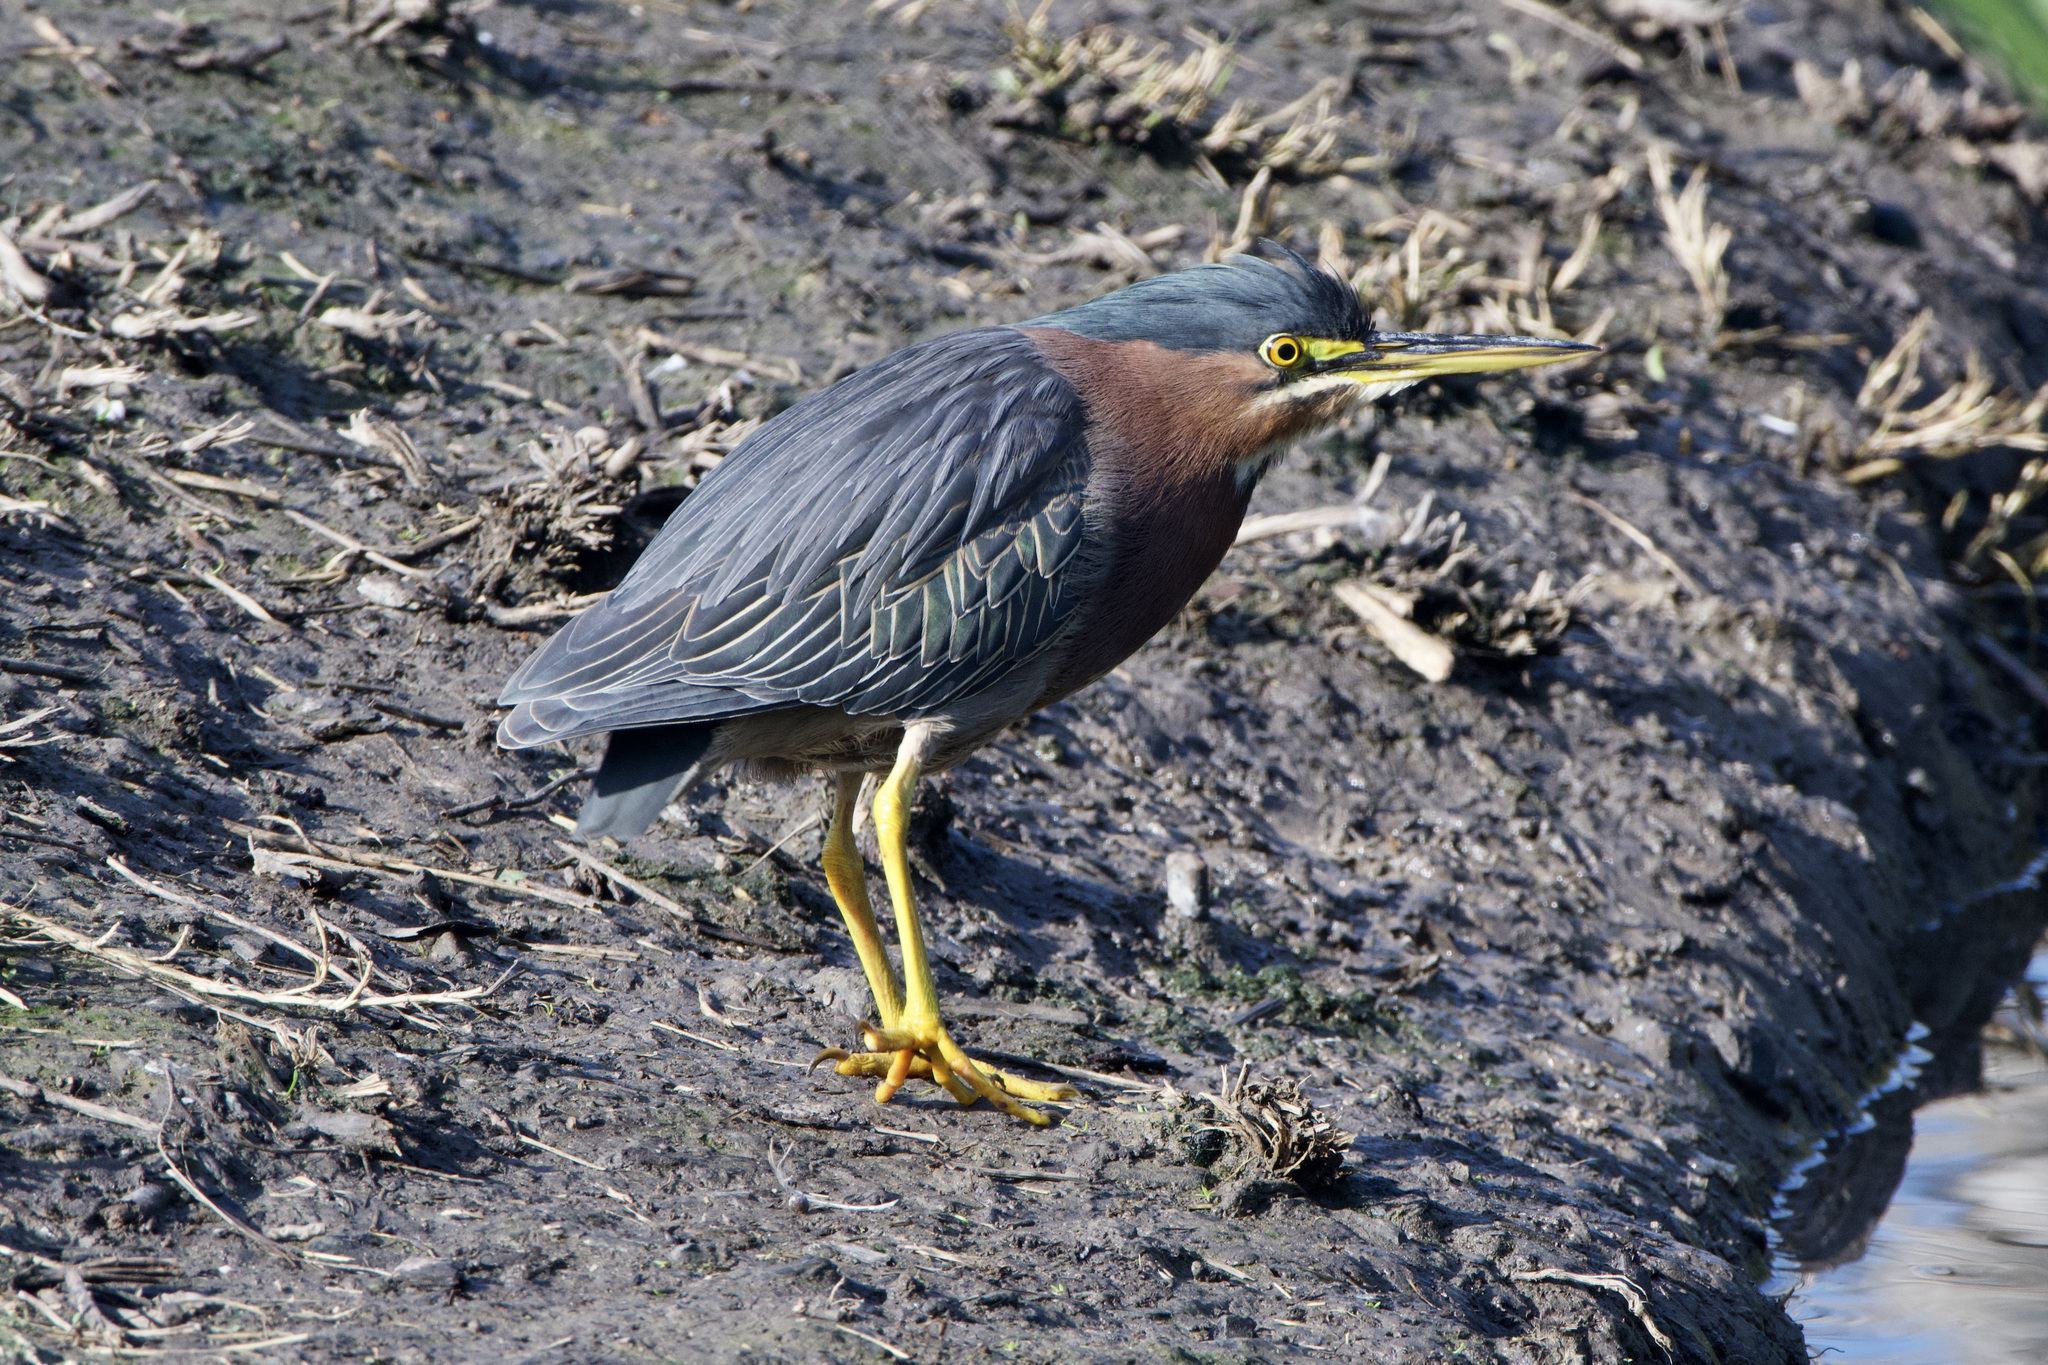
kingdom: Animalia
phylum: Chordata
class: Aves
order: Pelecaniformes
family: Ardeidae
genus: Butorides
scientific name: Butorides virescens
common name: Green heron
